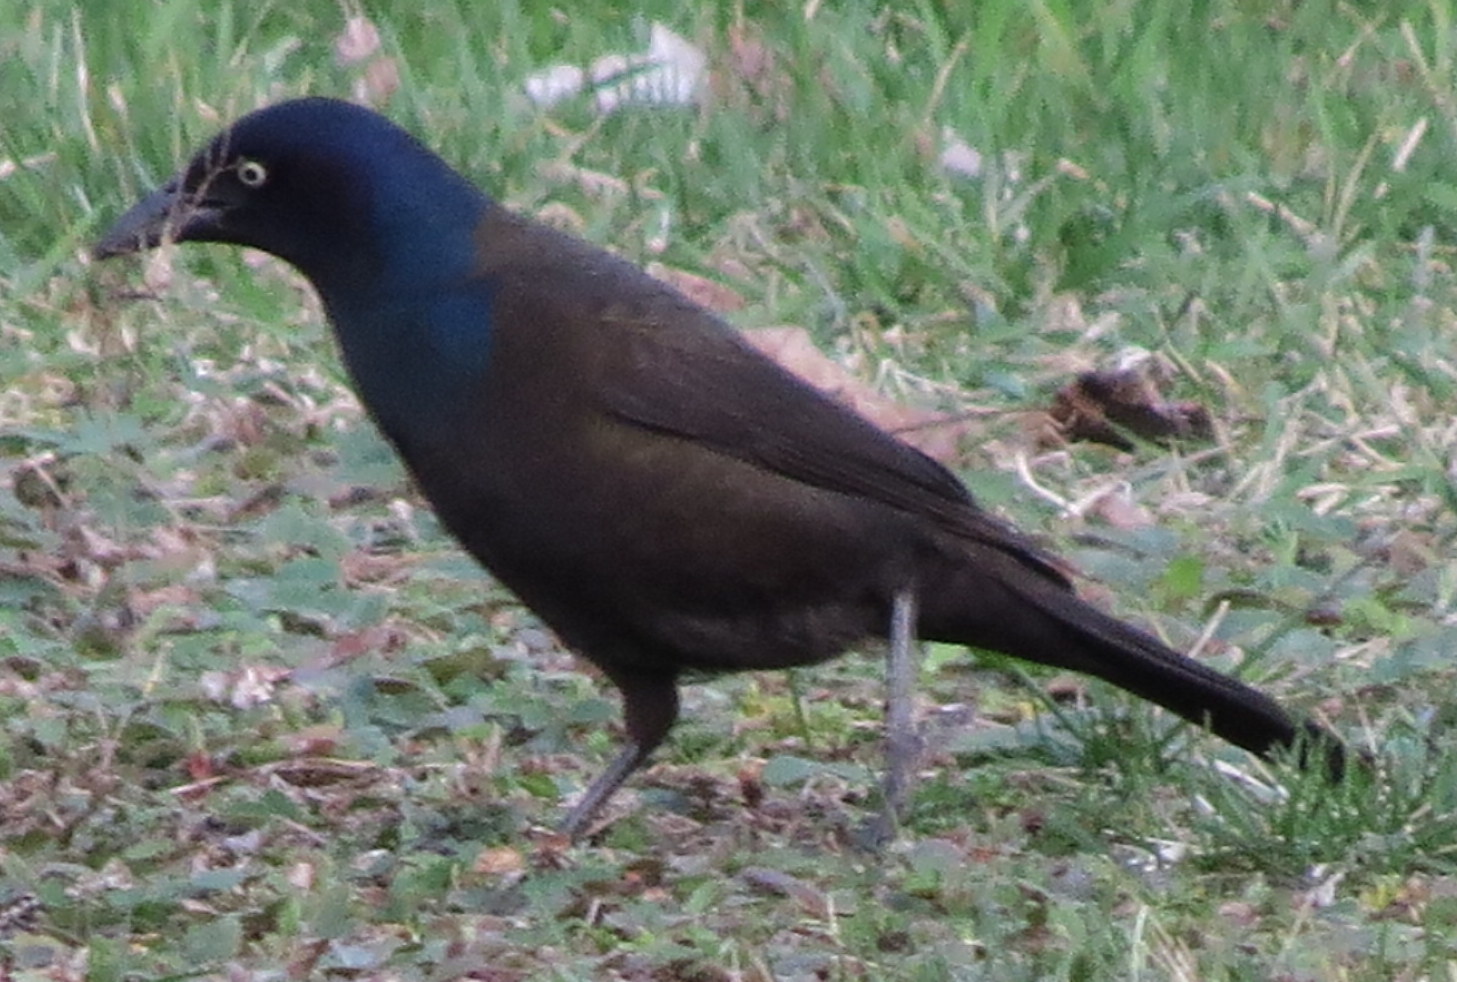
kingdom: Animalia
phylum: Chordata
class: Aves
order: Passeriformes
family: Icteridae
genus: Quiscalus
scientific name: Quiscalus quiscula
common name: Common grackle
